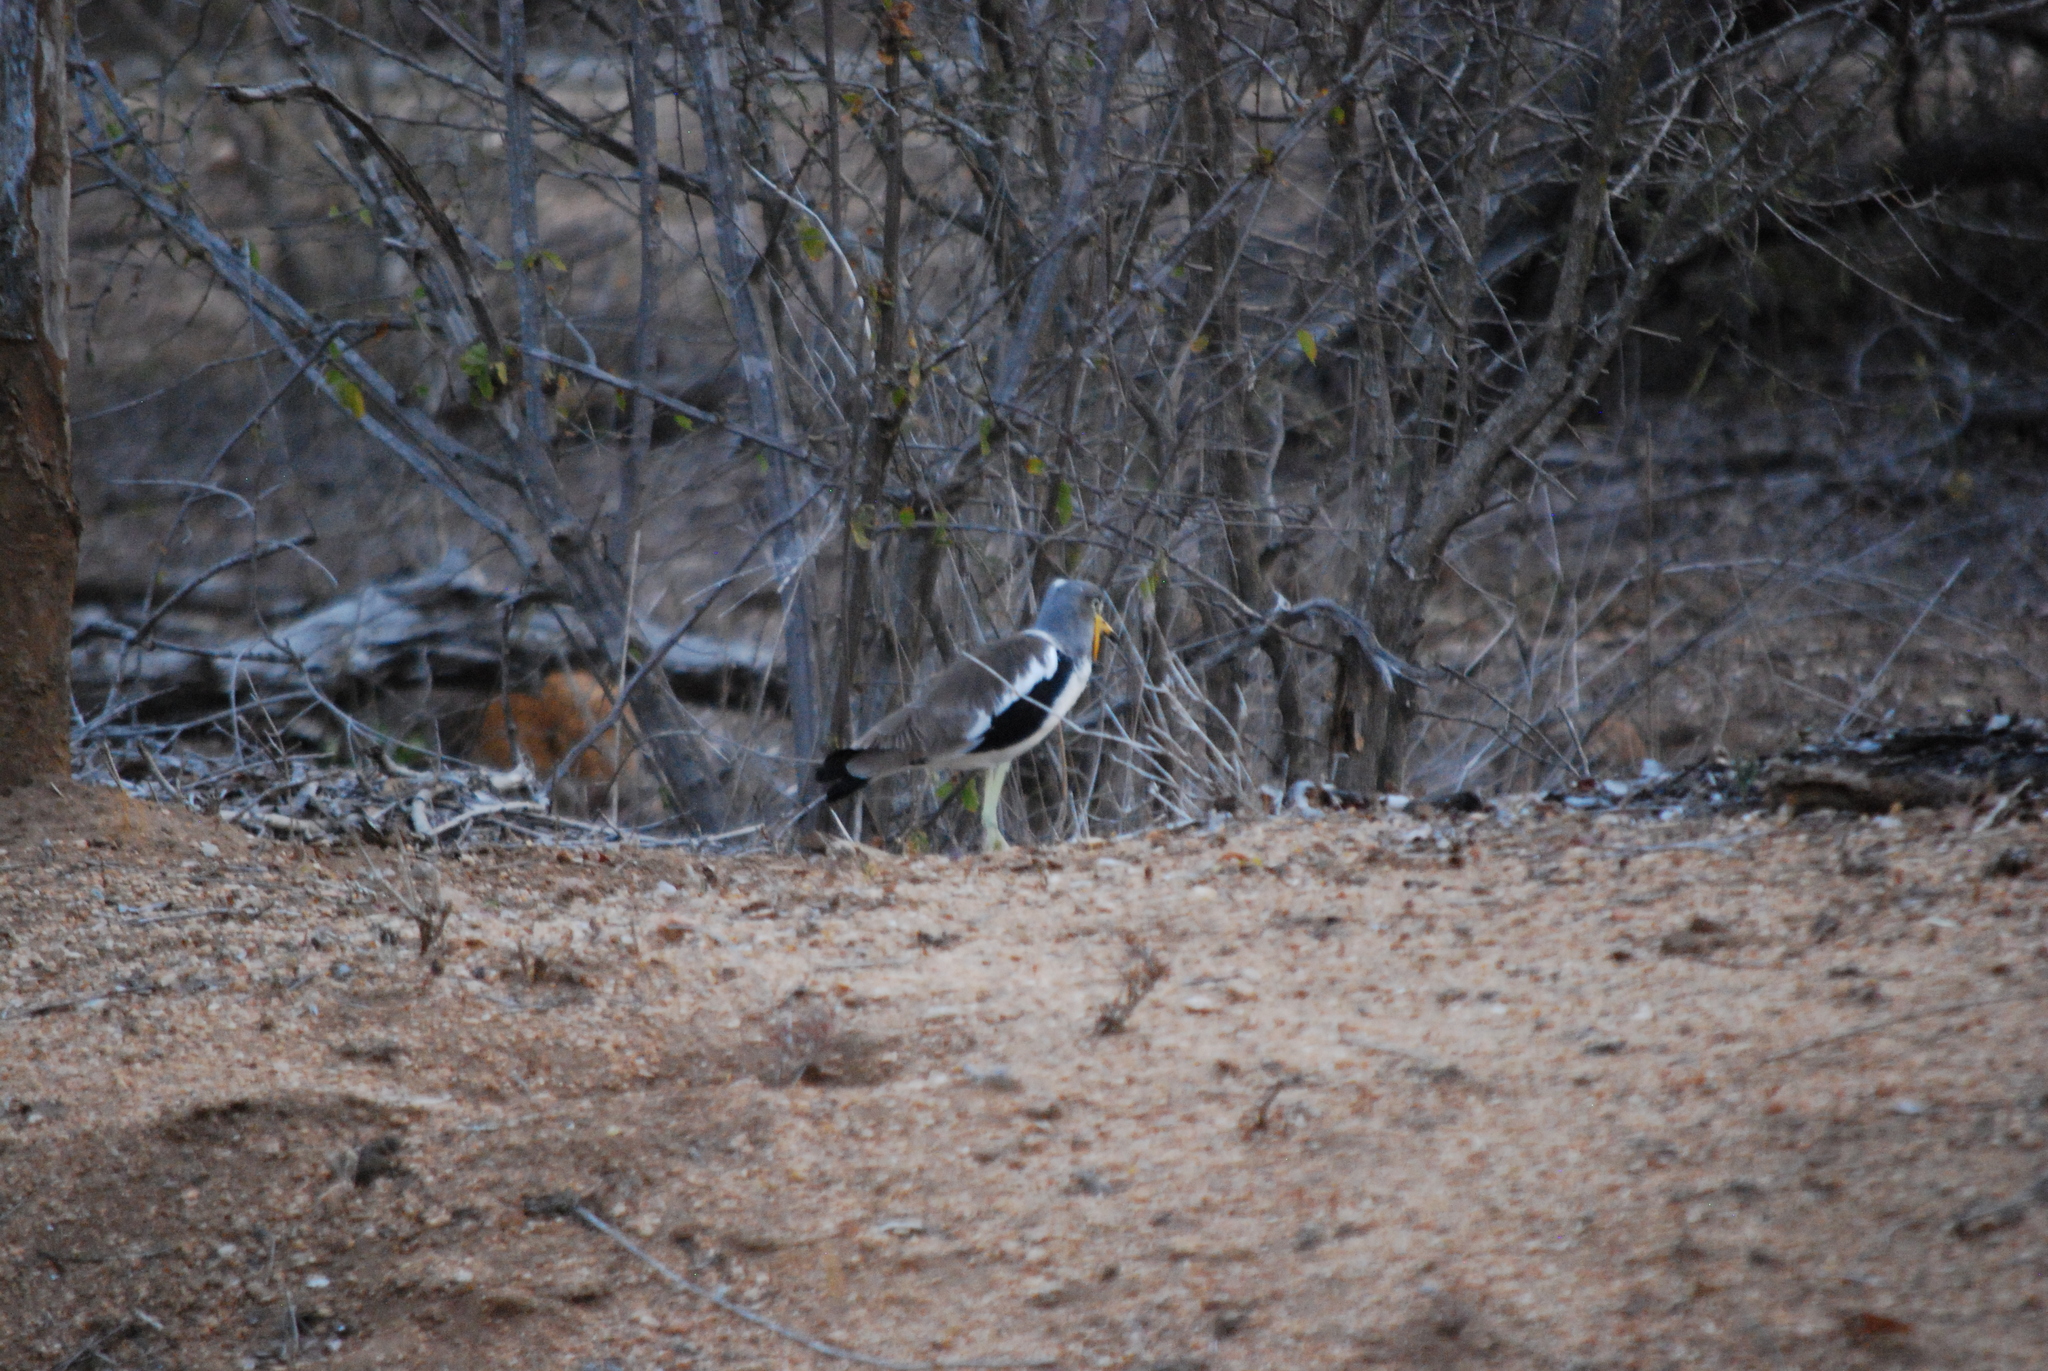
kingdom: Animalia
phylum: Chordata
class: Aves
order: Charadriiformes
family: Charadriidae
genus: Vanellus
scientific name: Vanellus albiceps
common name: White-crowned lapwing
